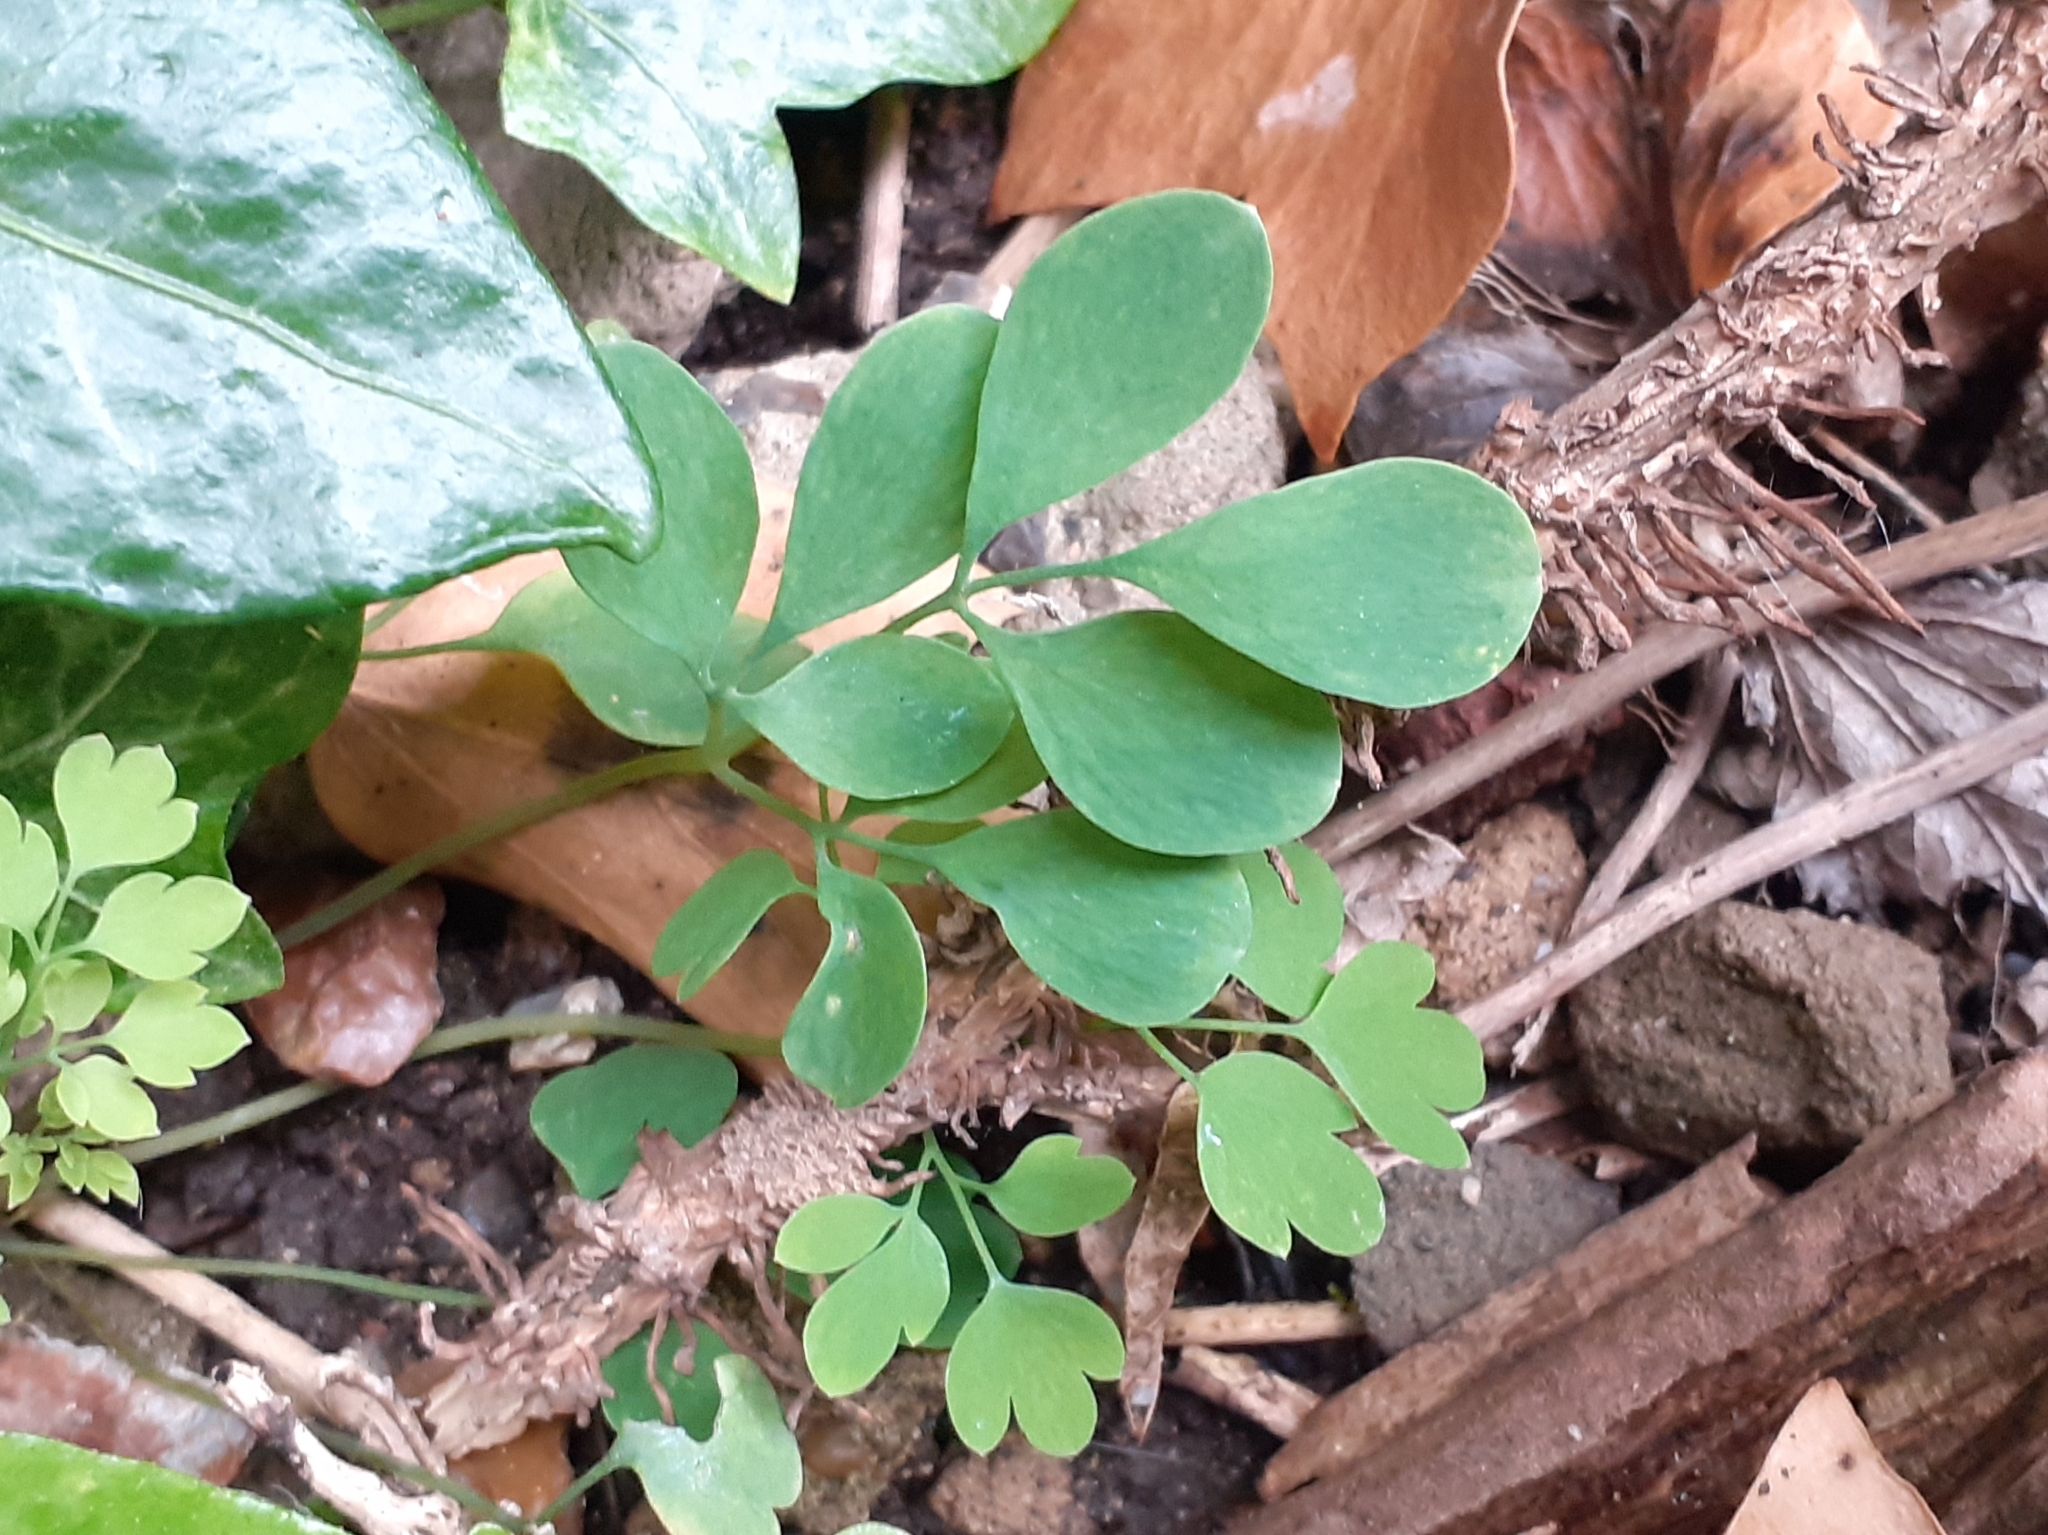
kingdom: Plantae
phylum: Tracheophyta
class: Magnoliopsida
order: Ranunculales
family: Papaveraceae
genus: Pseudofumaria
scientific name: Pseudofumaria lutea
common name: Yellow corydalis
